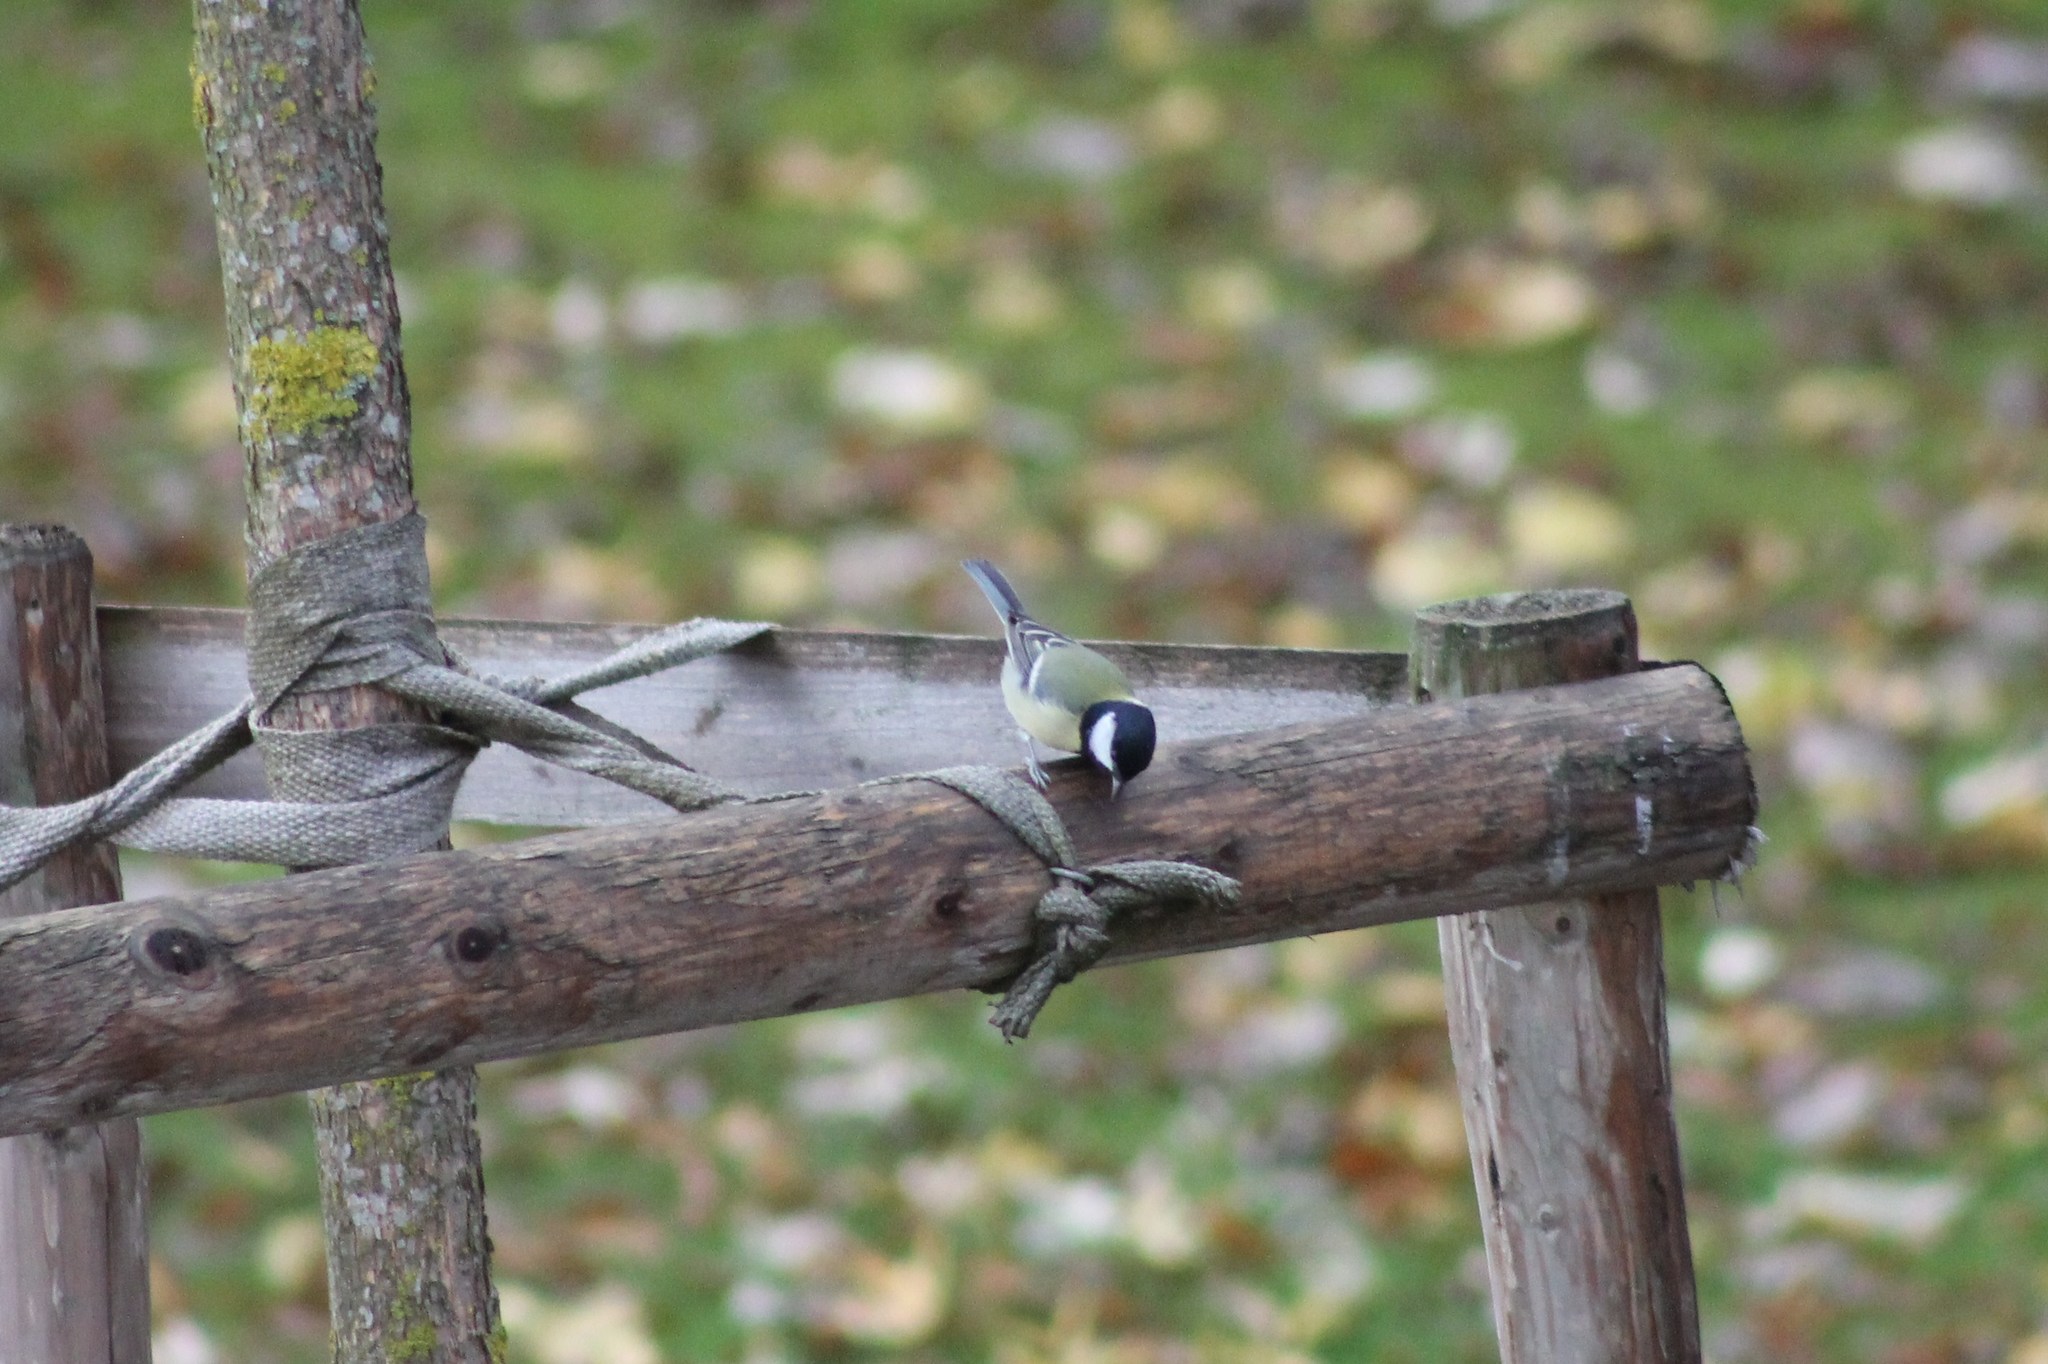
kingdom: Animalia
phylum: Chordata
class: Aves
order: Passeriformes
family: Paridae
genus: Parus
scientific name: Parus major
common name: Great tit
